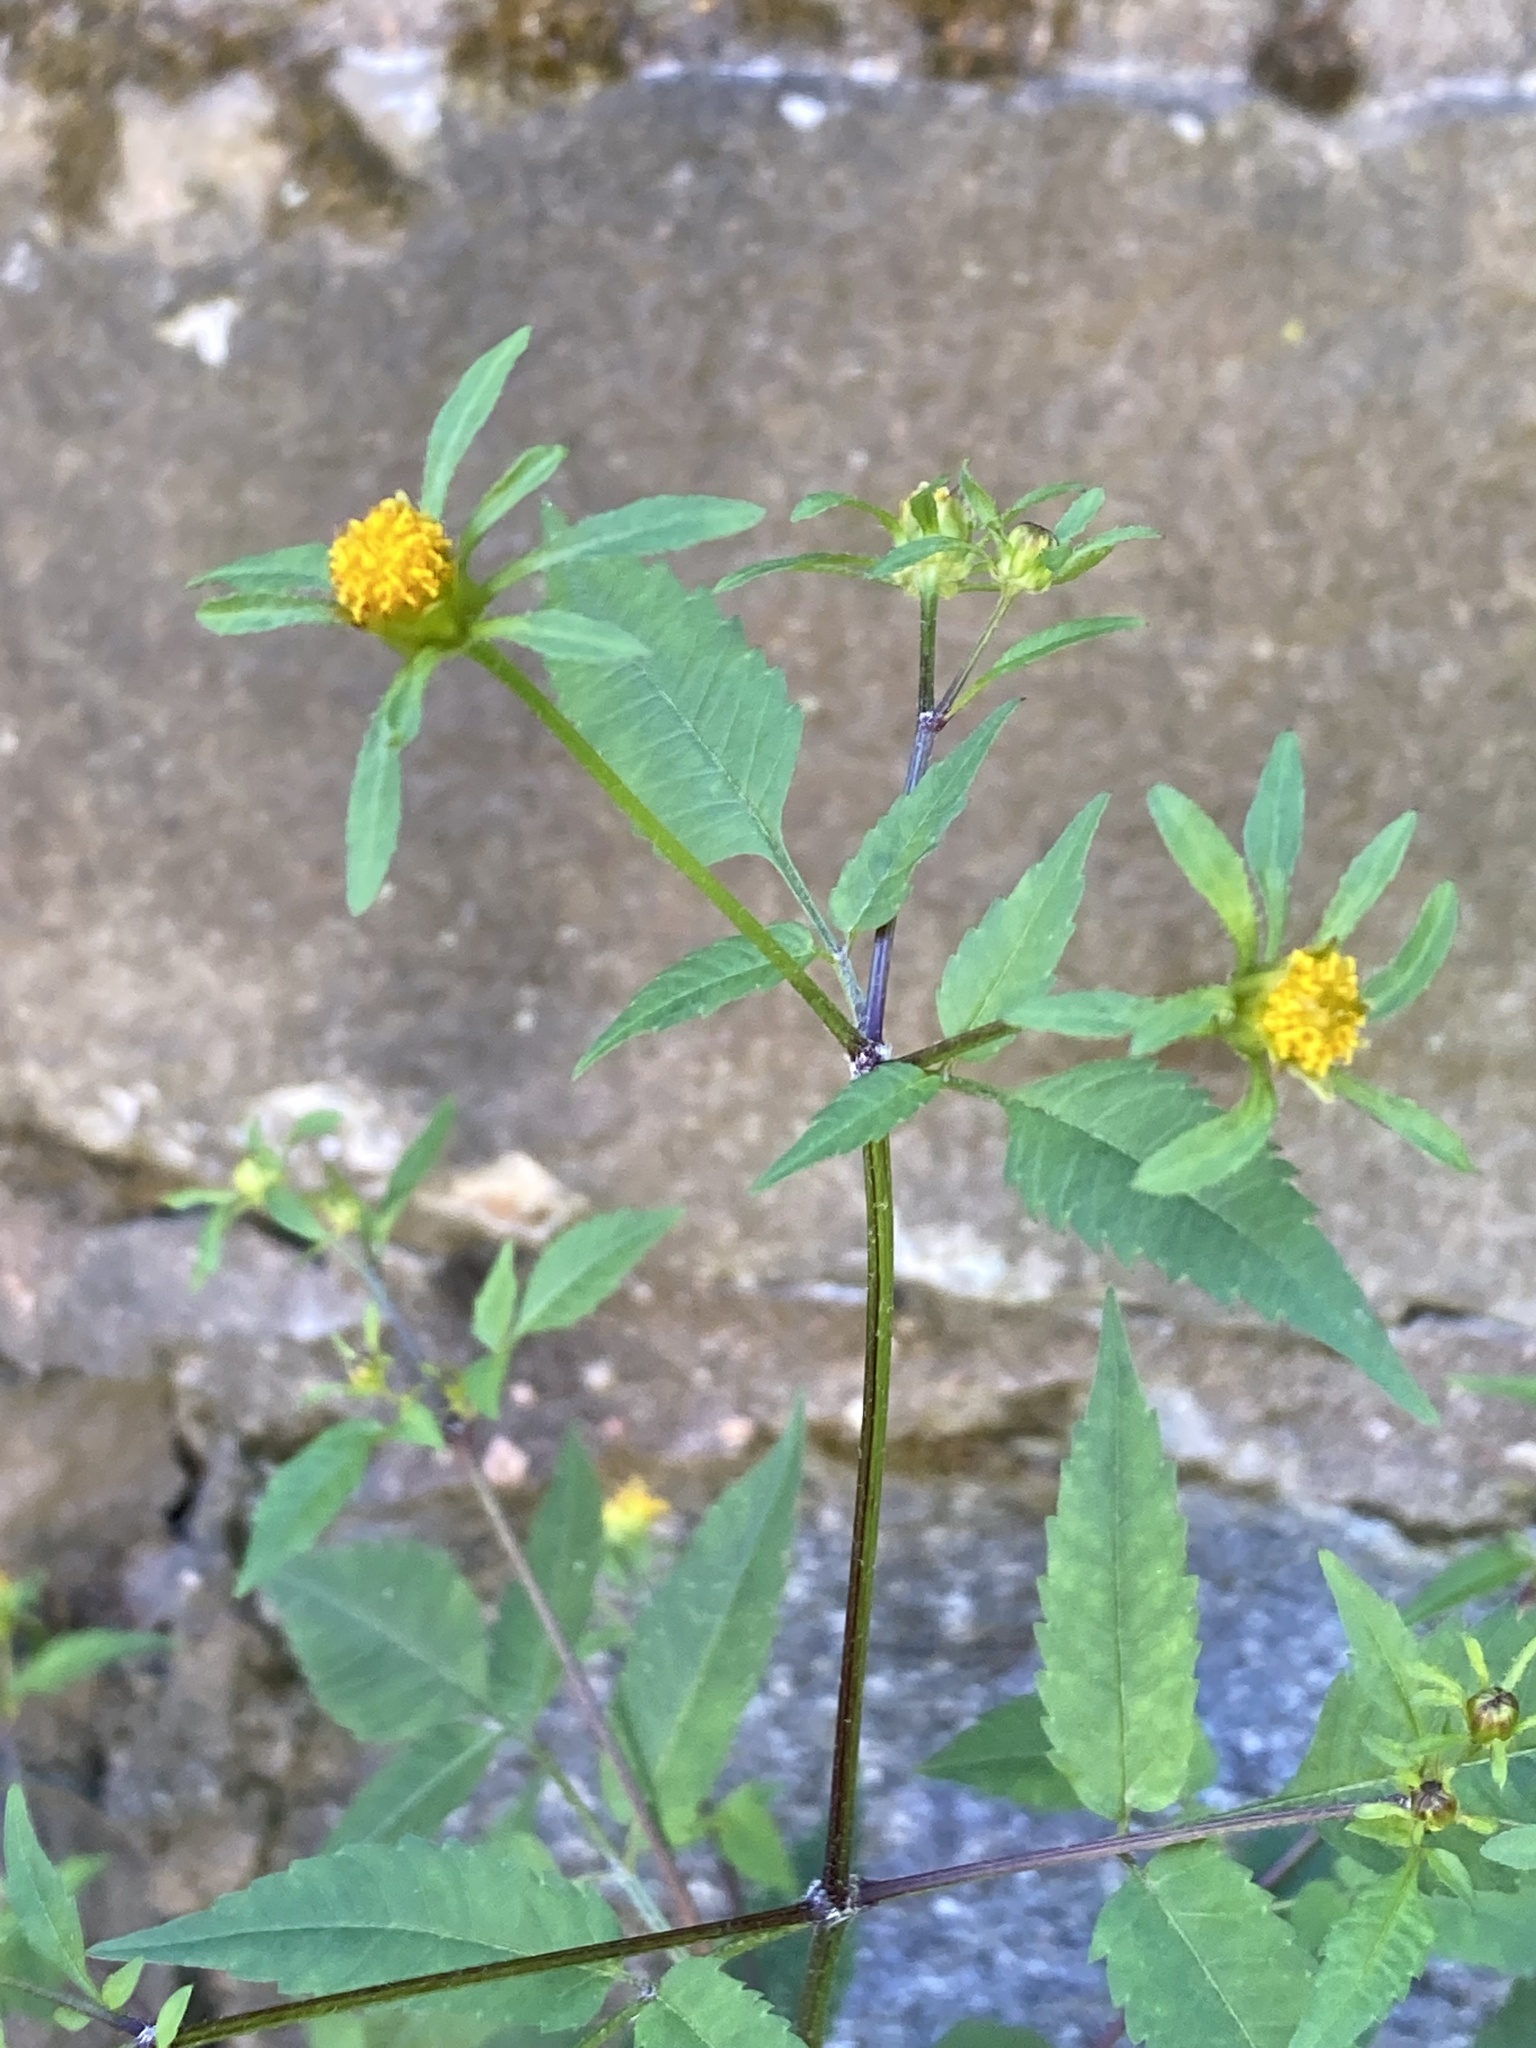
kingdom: Plantae
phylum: Tracheophyta
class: Magnoliopsida
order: Asterales
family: Asteraceae
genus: Bidens
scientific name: Bidens frondosa
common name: Beggarticks
